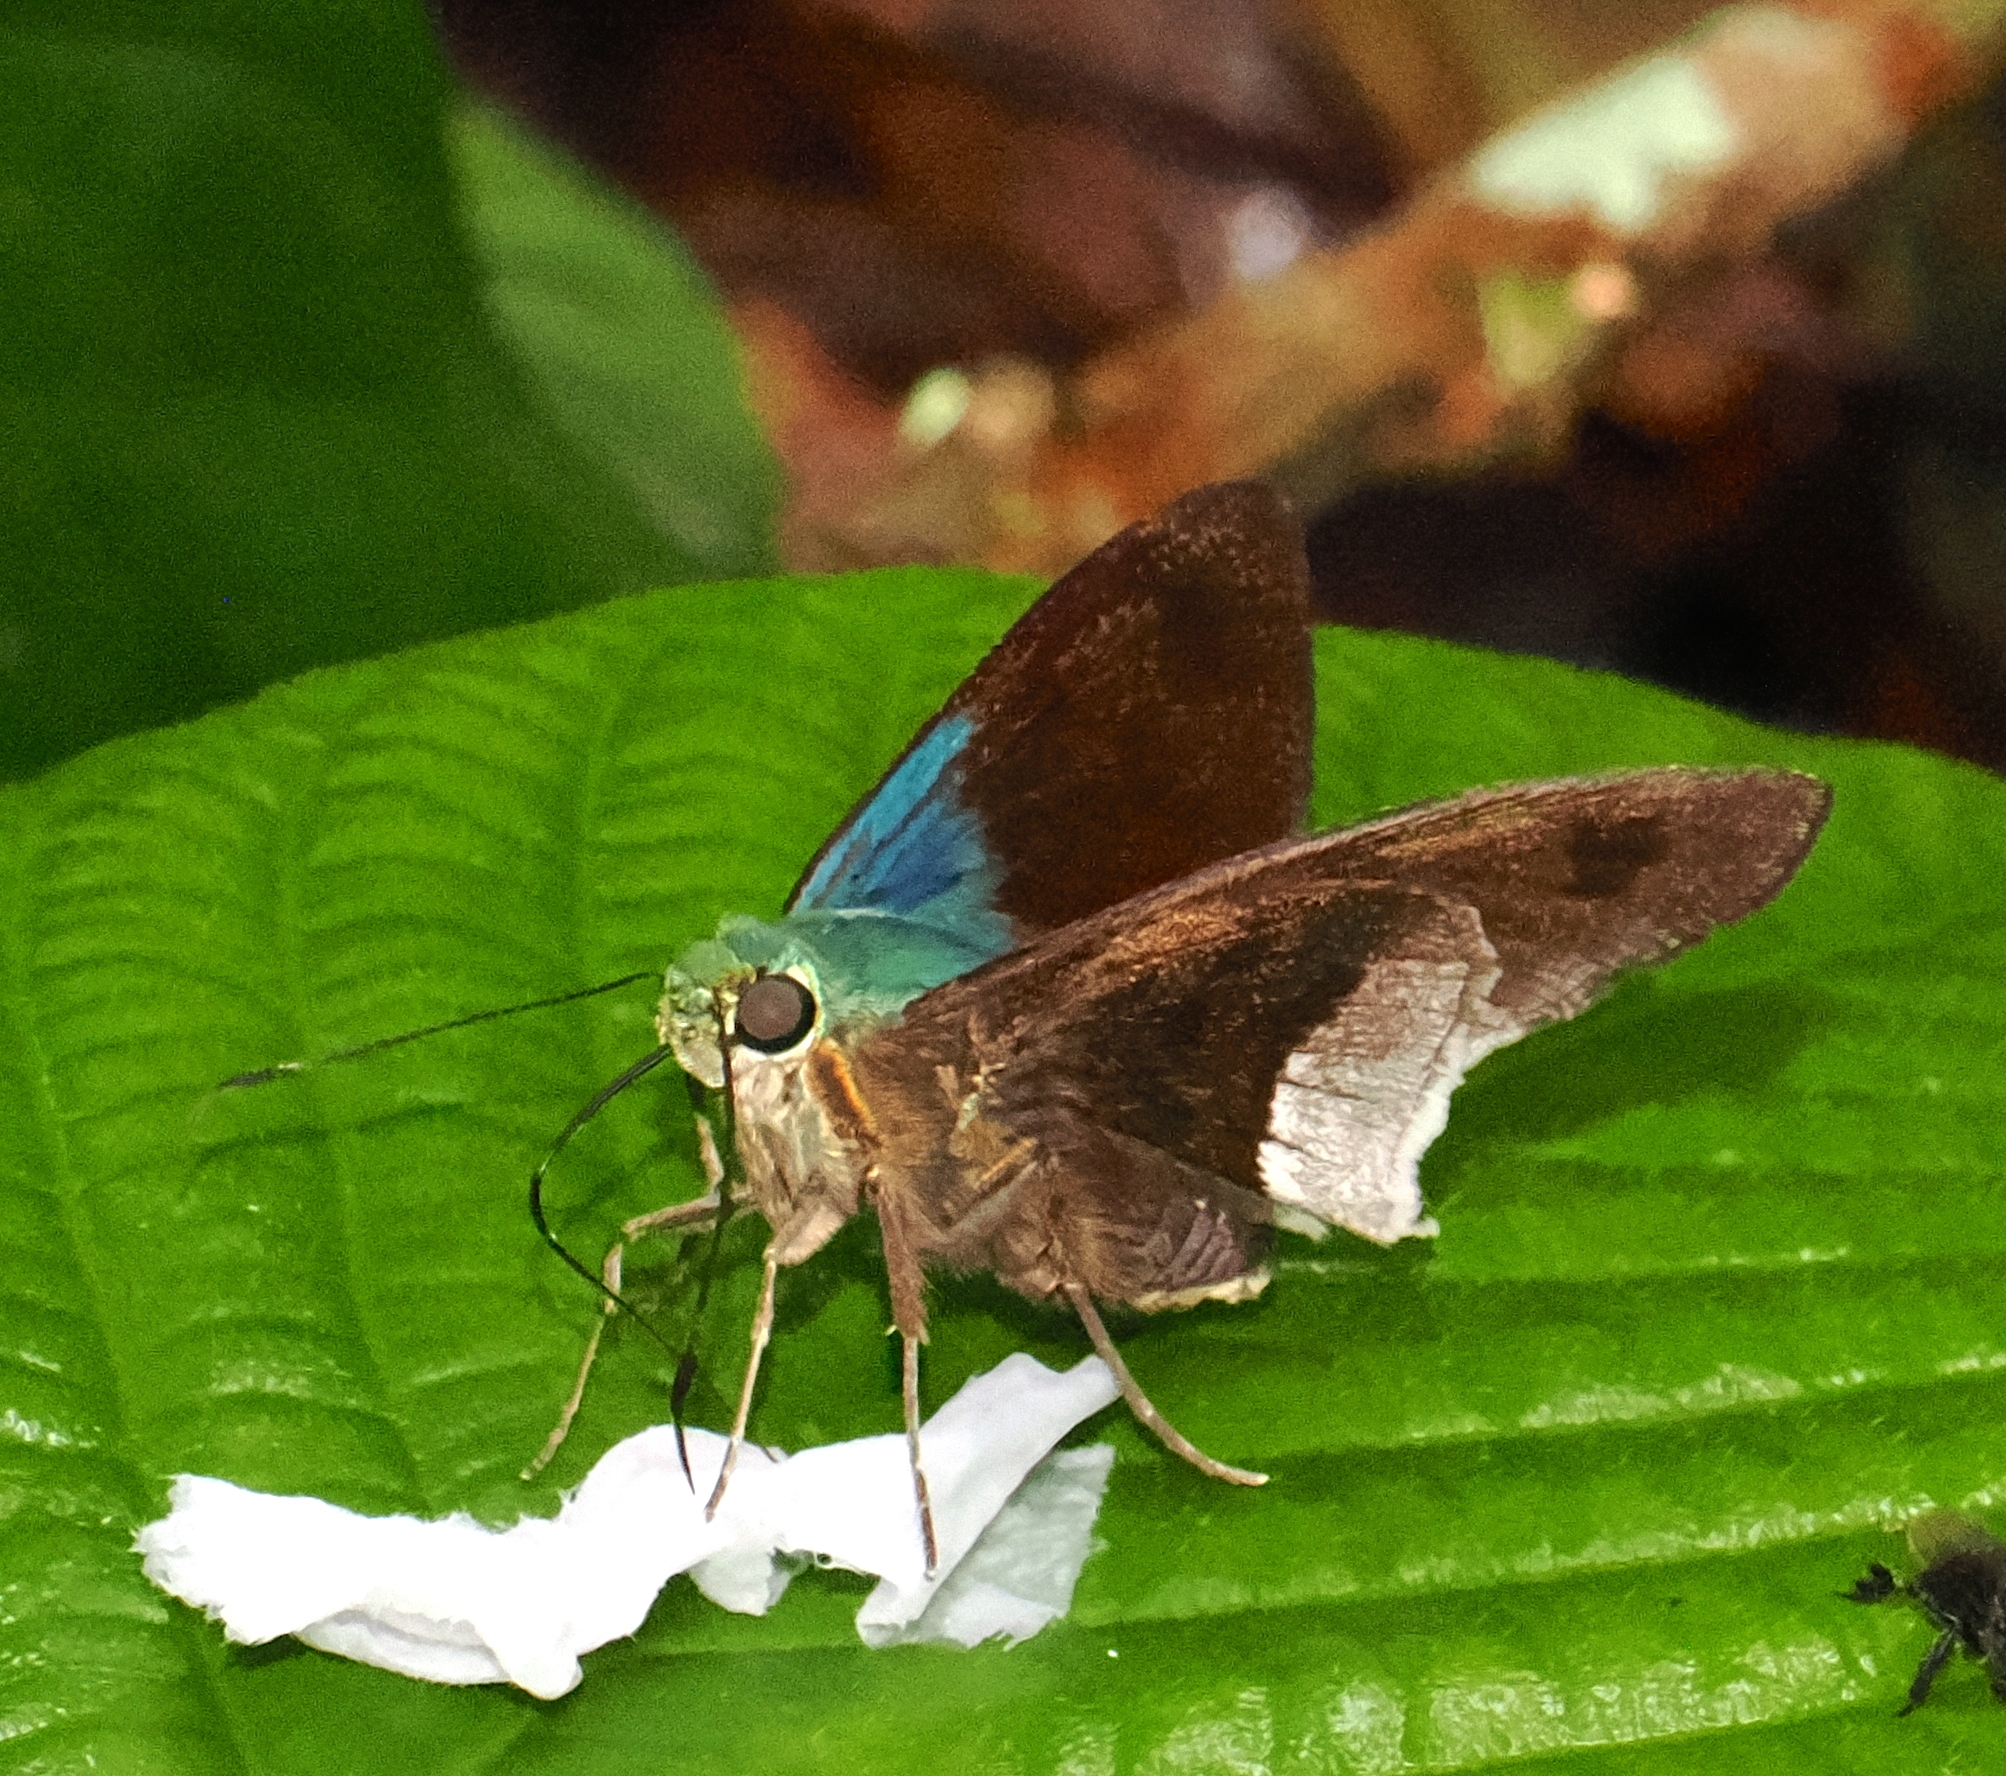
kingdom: Animalia
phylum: Arthropoda
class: Insecta
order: Lepidoptera
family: Hesperiidae
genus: Astraptes
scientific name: Astraptes alardus
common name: Frosted flasher
